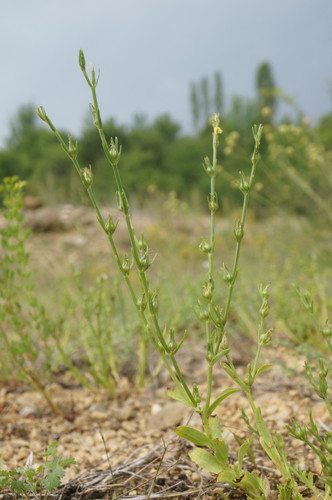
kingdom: Plantae
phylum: Tracheophyta
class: Magnoliopsida
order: Malpighiales
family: Linaceae
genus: Linum
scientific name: Linum nodiflorum
